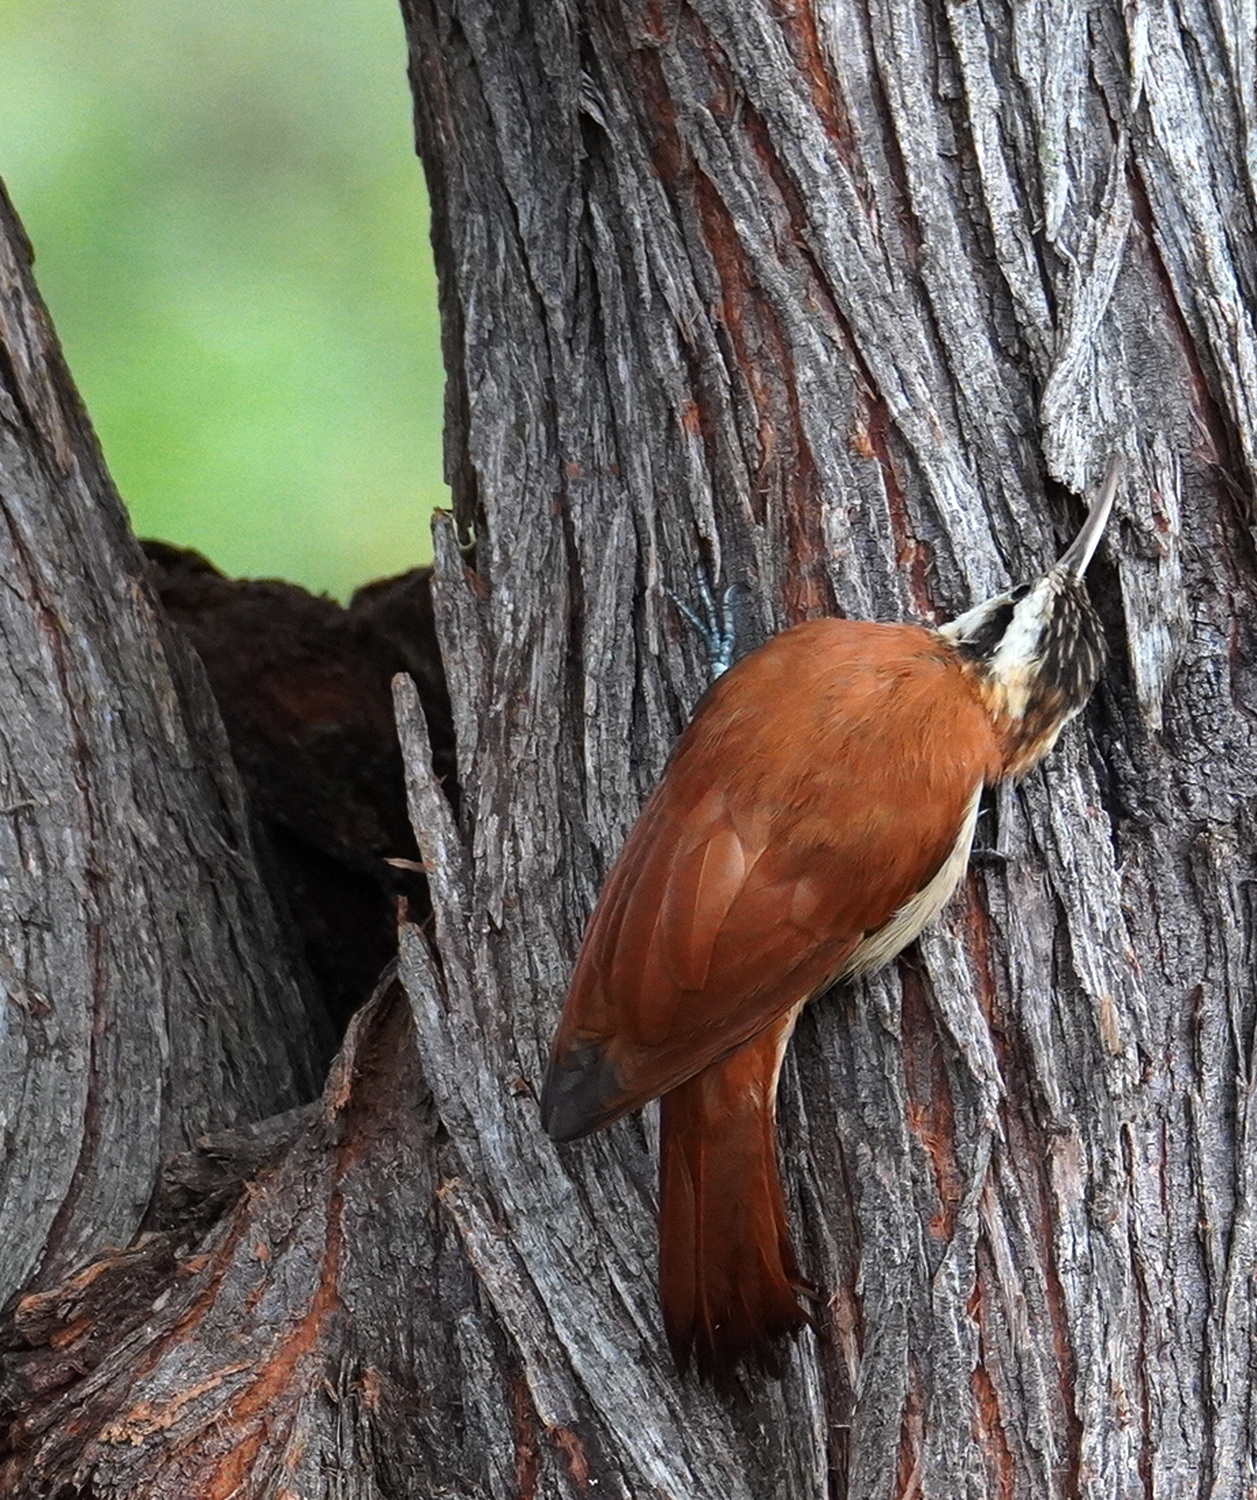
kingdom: Animalia
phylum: Chordata
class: Aves
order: Passeriformes
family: Furnariidae
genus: Lepidocolaptes
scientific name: Lepidocolaptes angustirostris
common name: Narrow-billed woodcreeper
